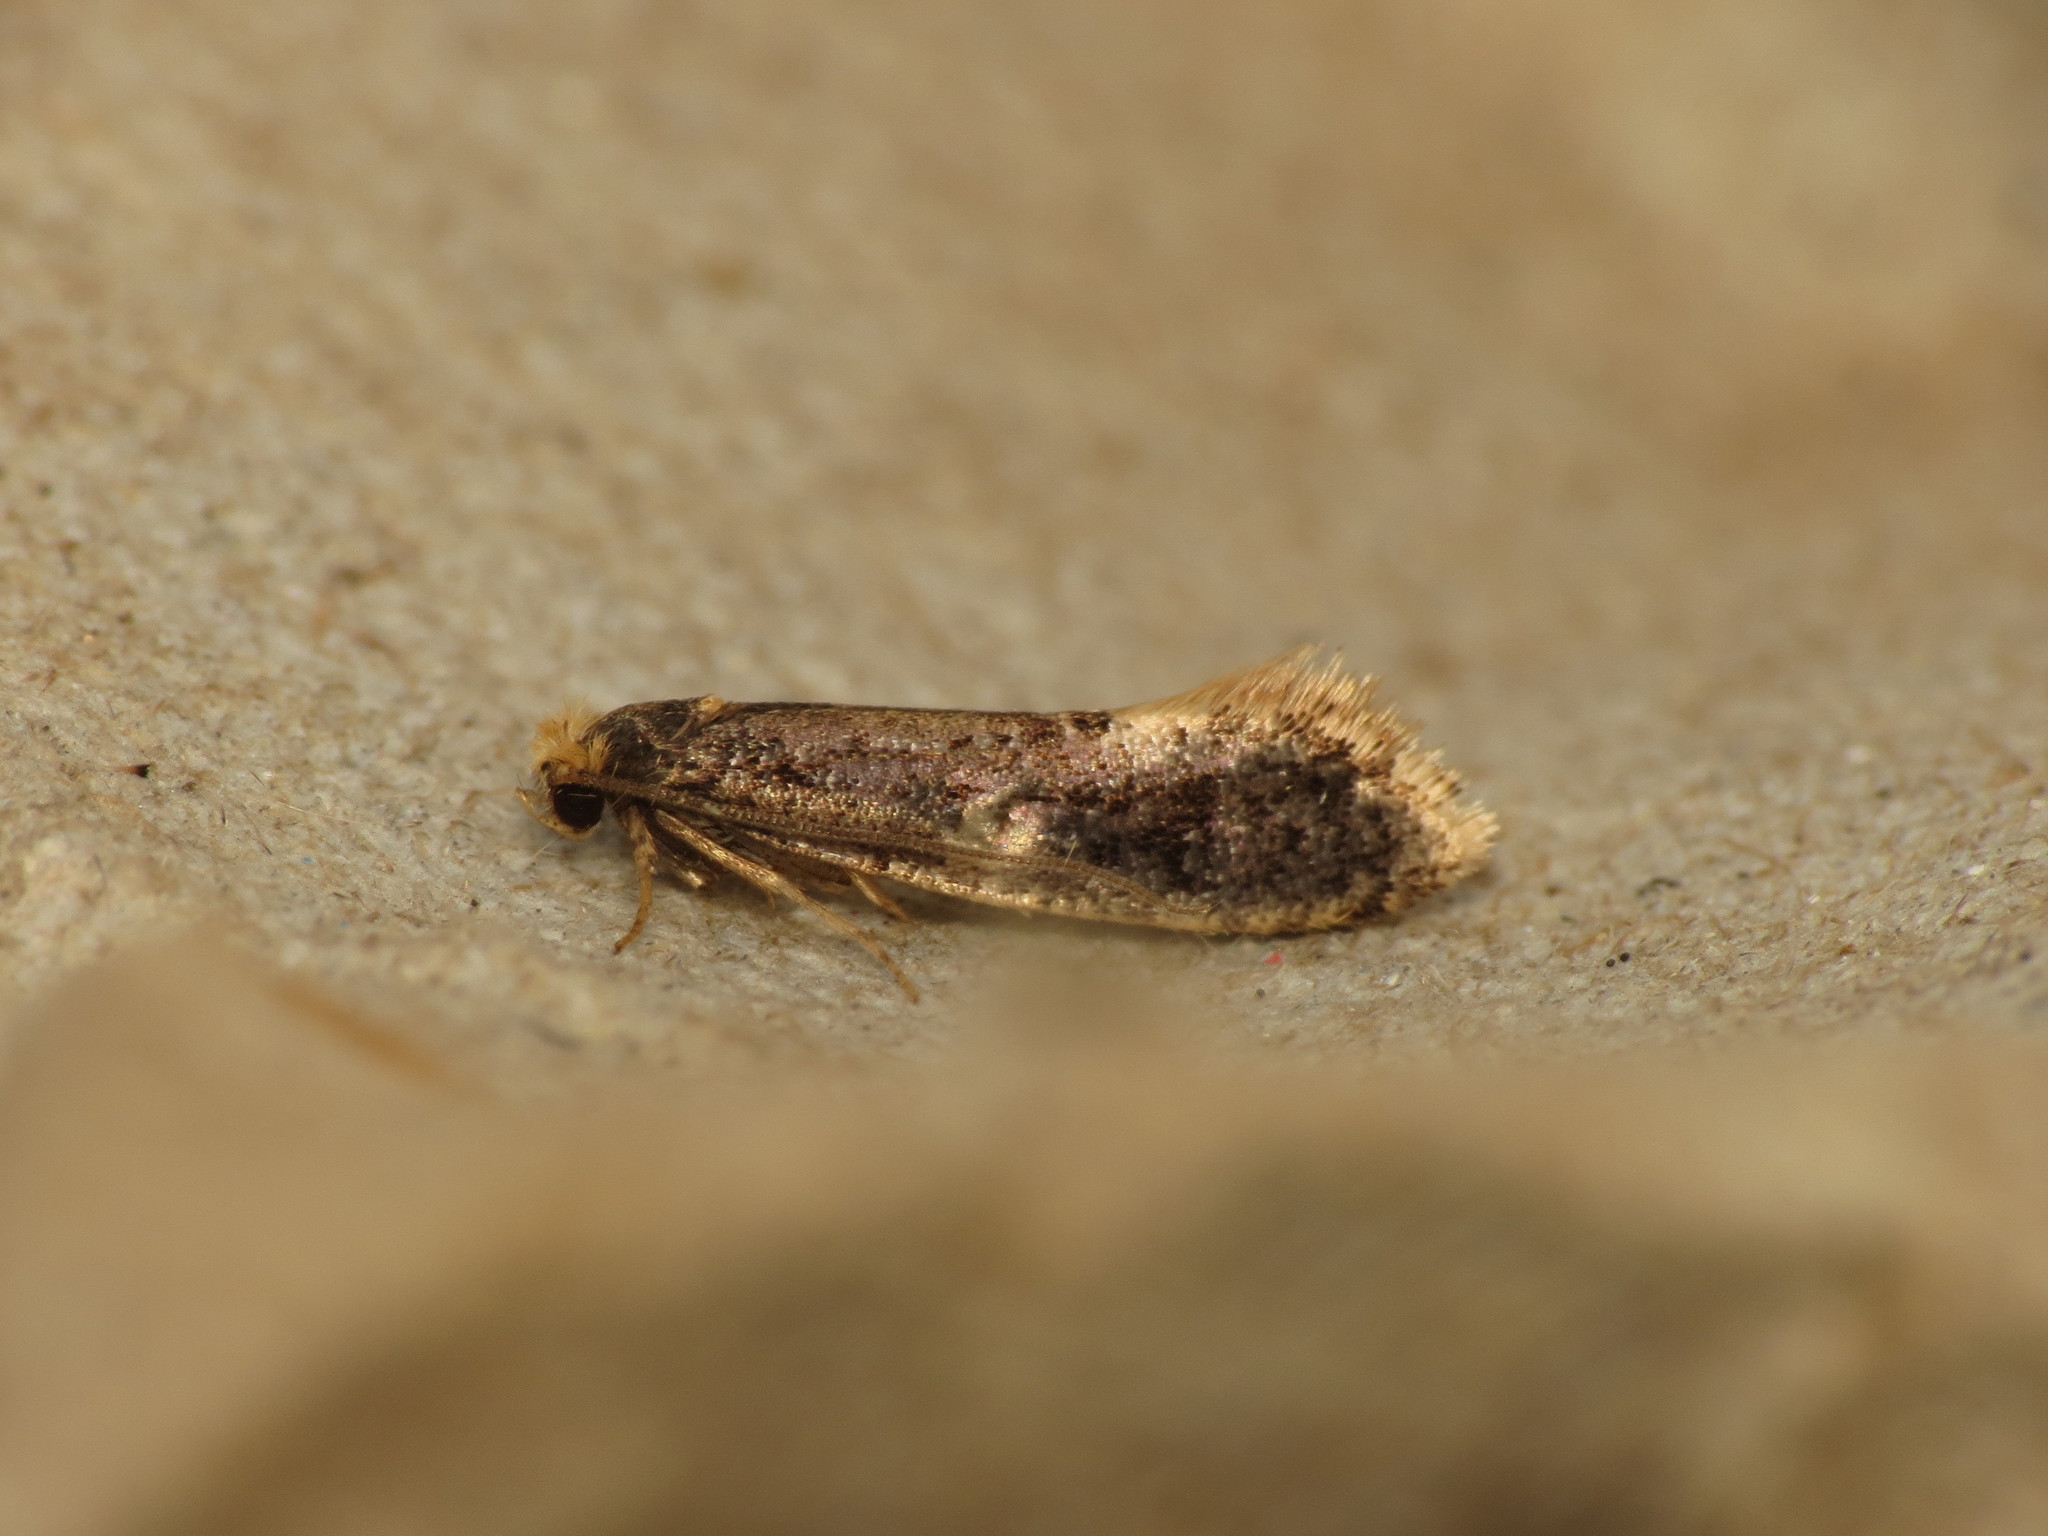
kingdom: Animalia
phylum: Arthropoda
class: Insecta
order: Lepidoptera
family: Tineidae
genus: Monopis
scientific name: Monopis weaverella
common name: Carrion moth
